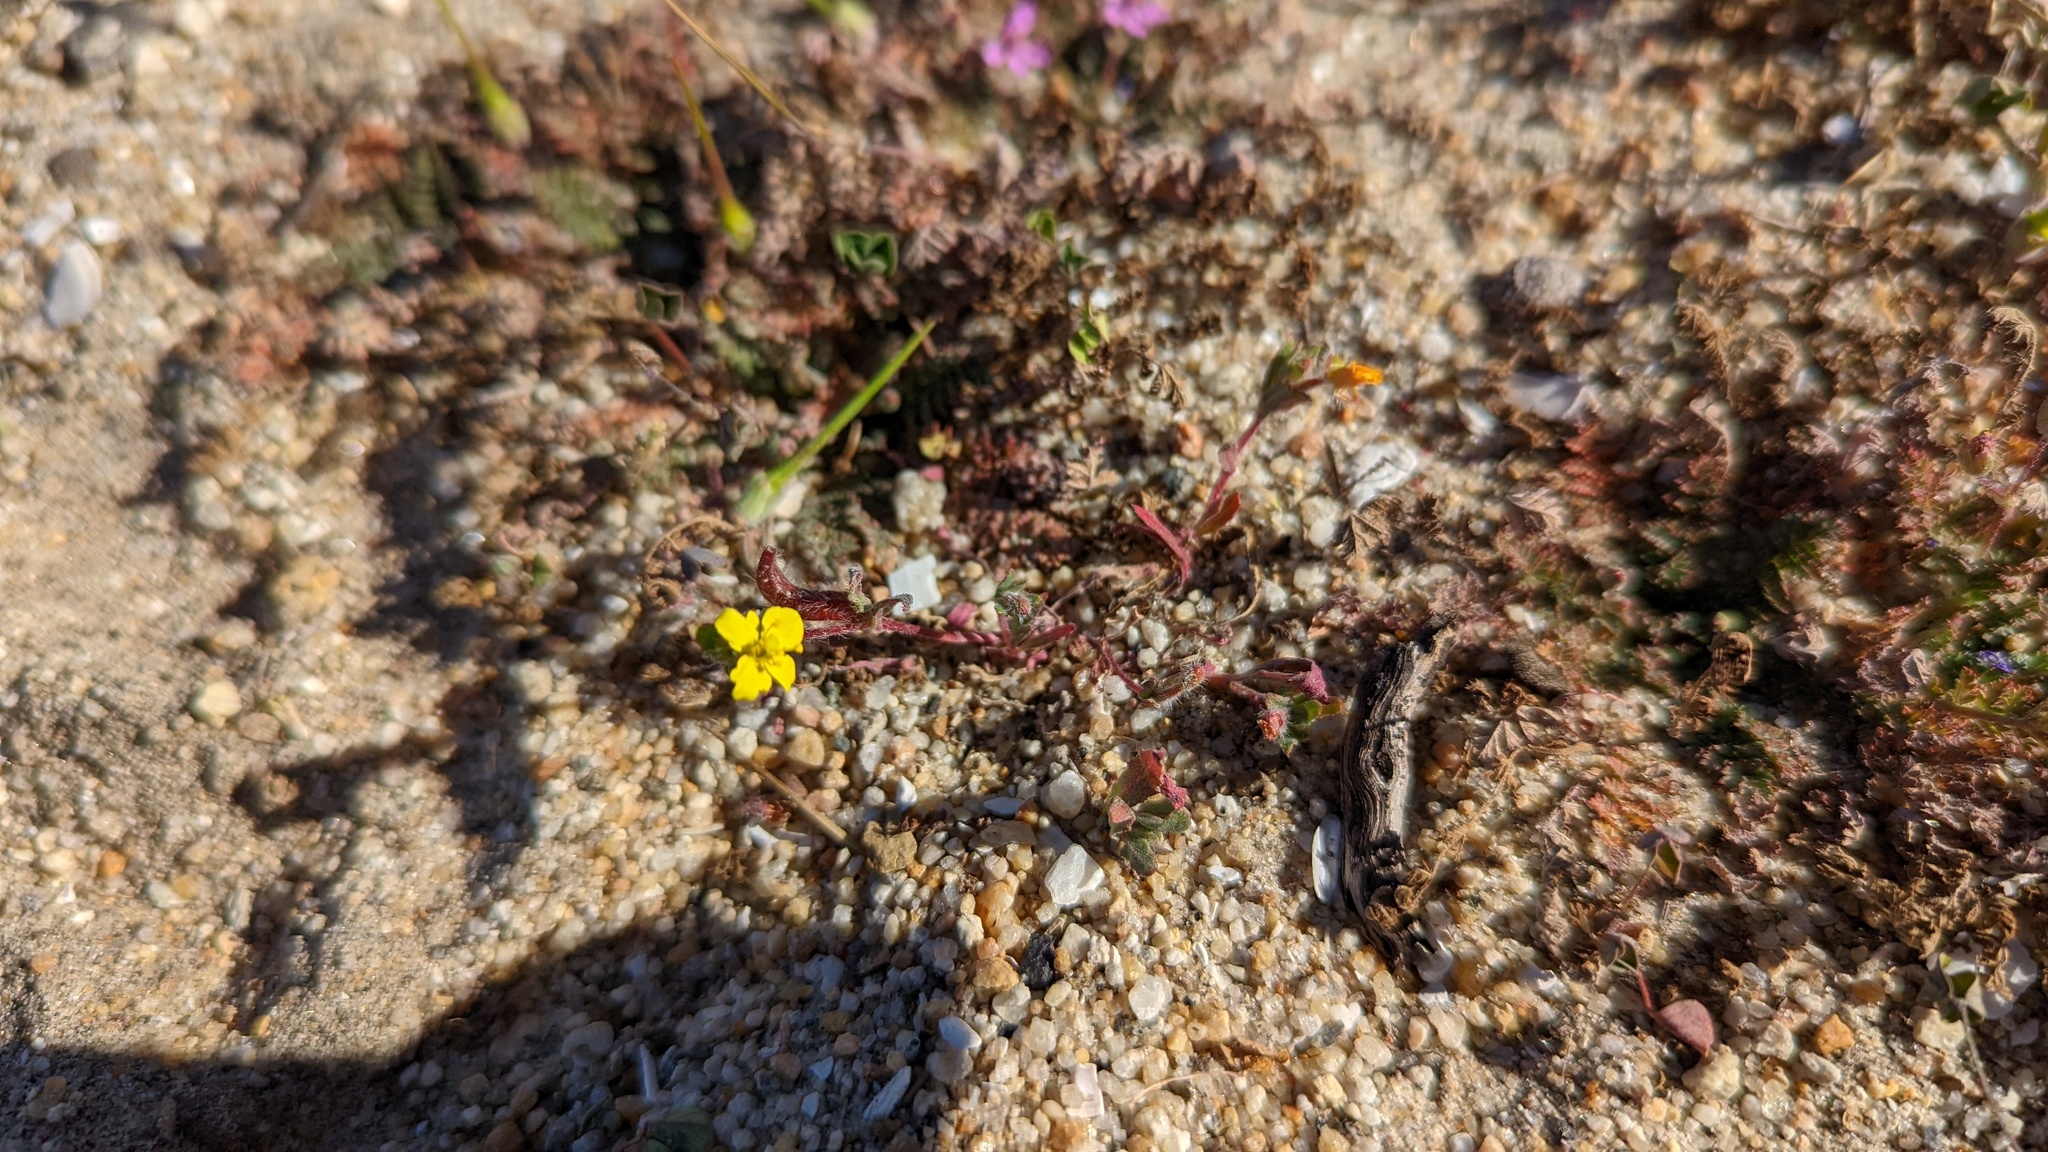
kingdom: Plantae
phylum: Tracheophyta
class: Magnoliopsida
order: Myrtales
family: Onagraceae
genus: Camissoniopsis
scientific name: Camissoniopsis lewisii
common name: Lewis' evening primrose
